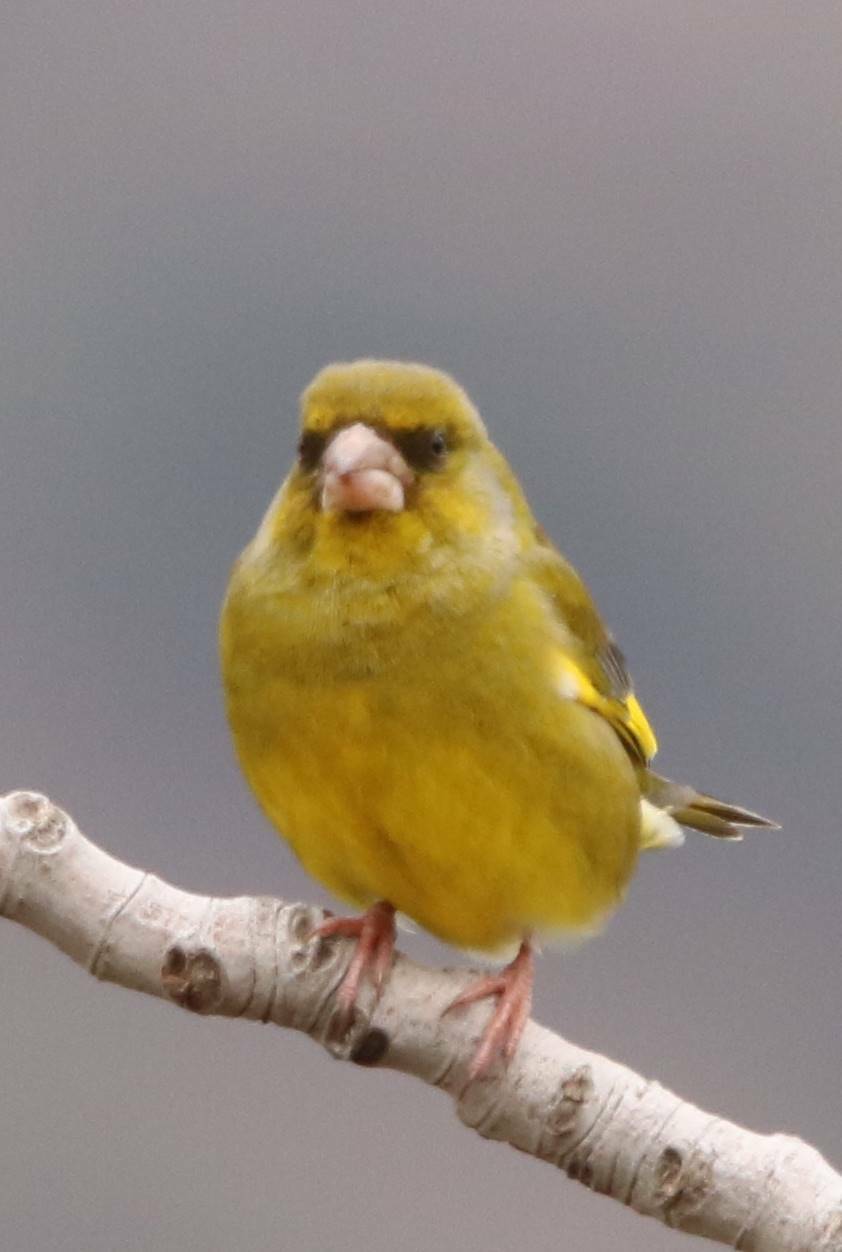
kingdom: Plantae
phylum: Tracheophyta
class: Liliopsida
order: Poales
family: Poaceae
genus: Chloris
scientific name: Chloris chloris
